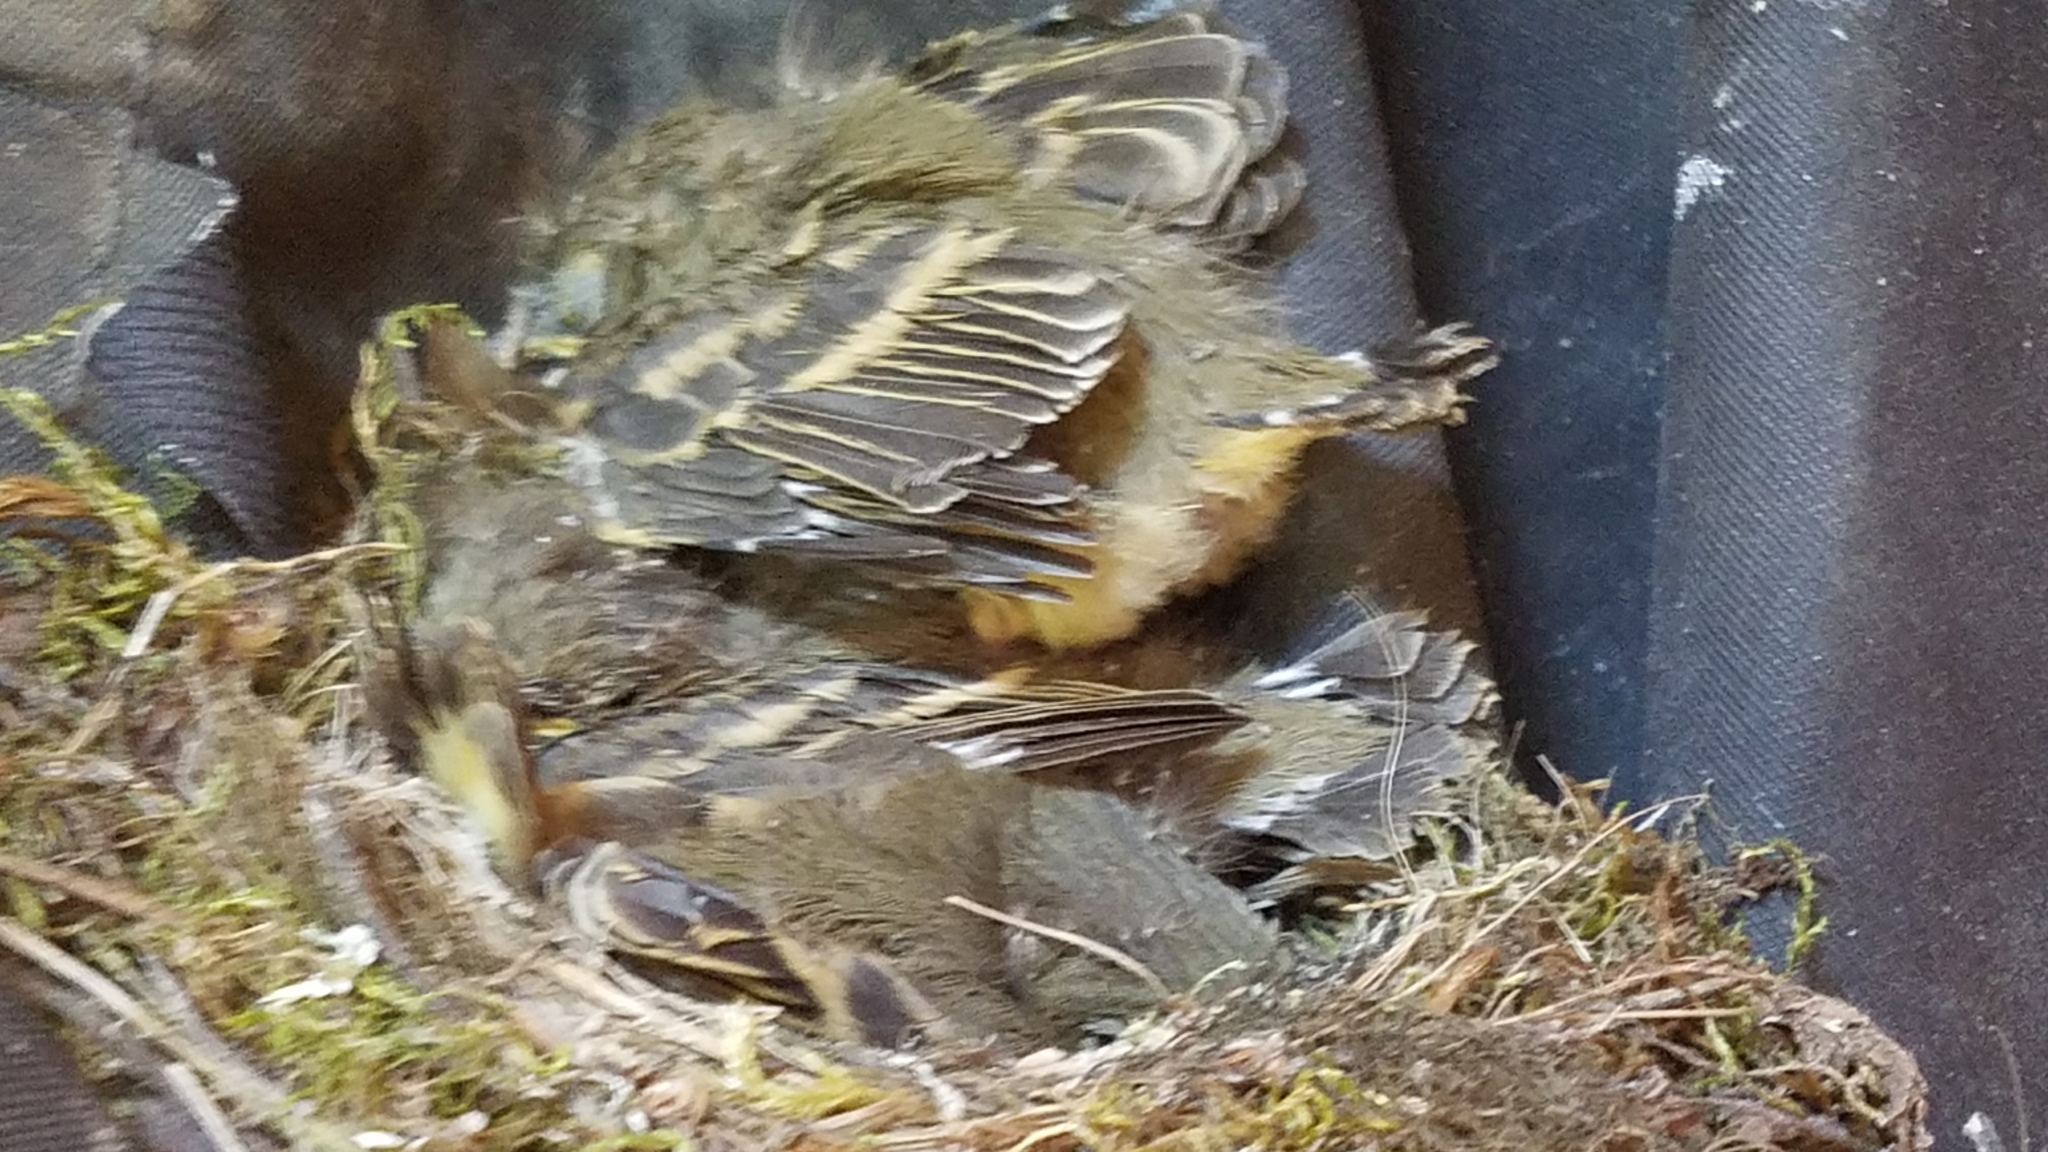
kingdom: Animalia
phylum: Chordata
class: Aves
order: Passeriformes
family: Tyrannidae
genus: Empidonax
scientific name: Empidonax difficilis
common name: Pacific-slope flycatcher
